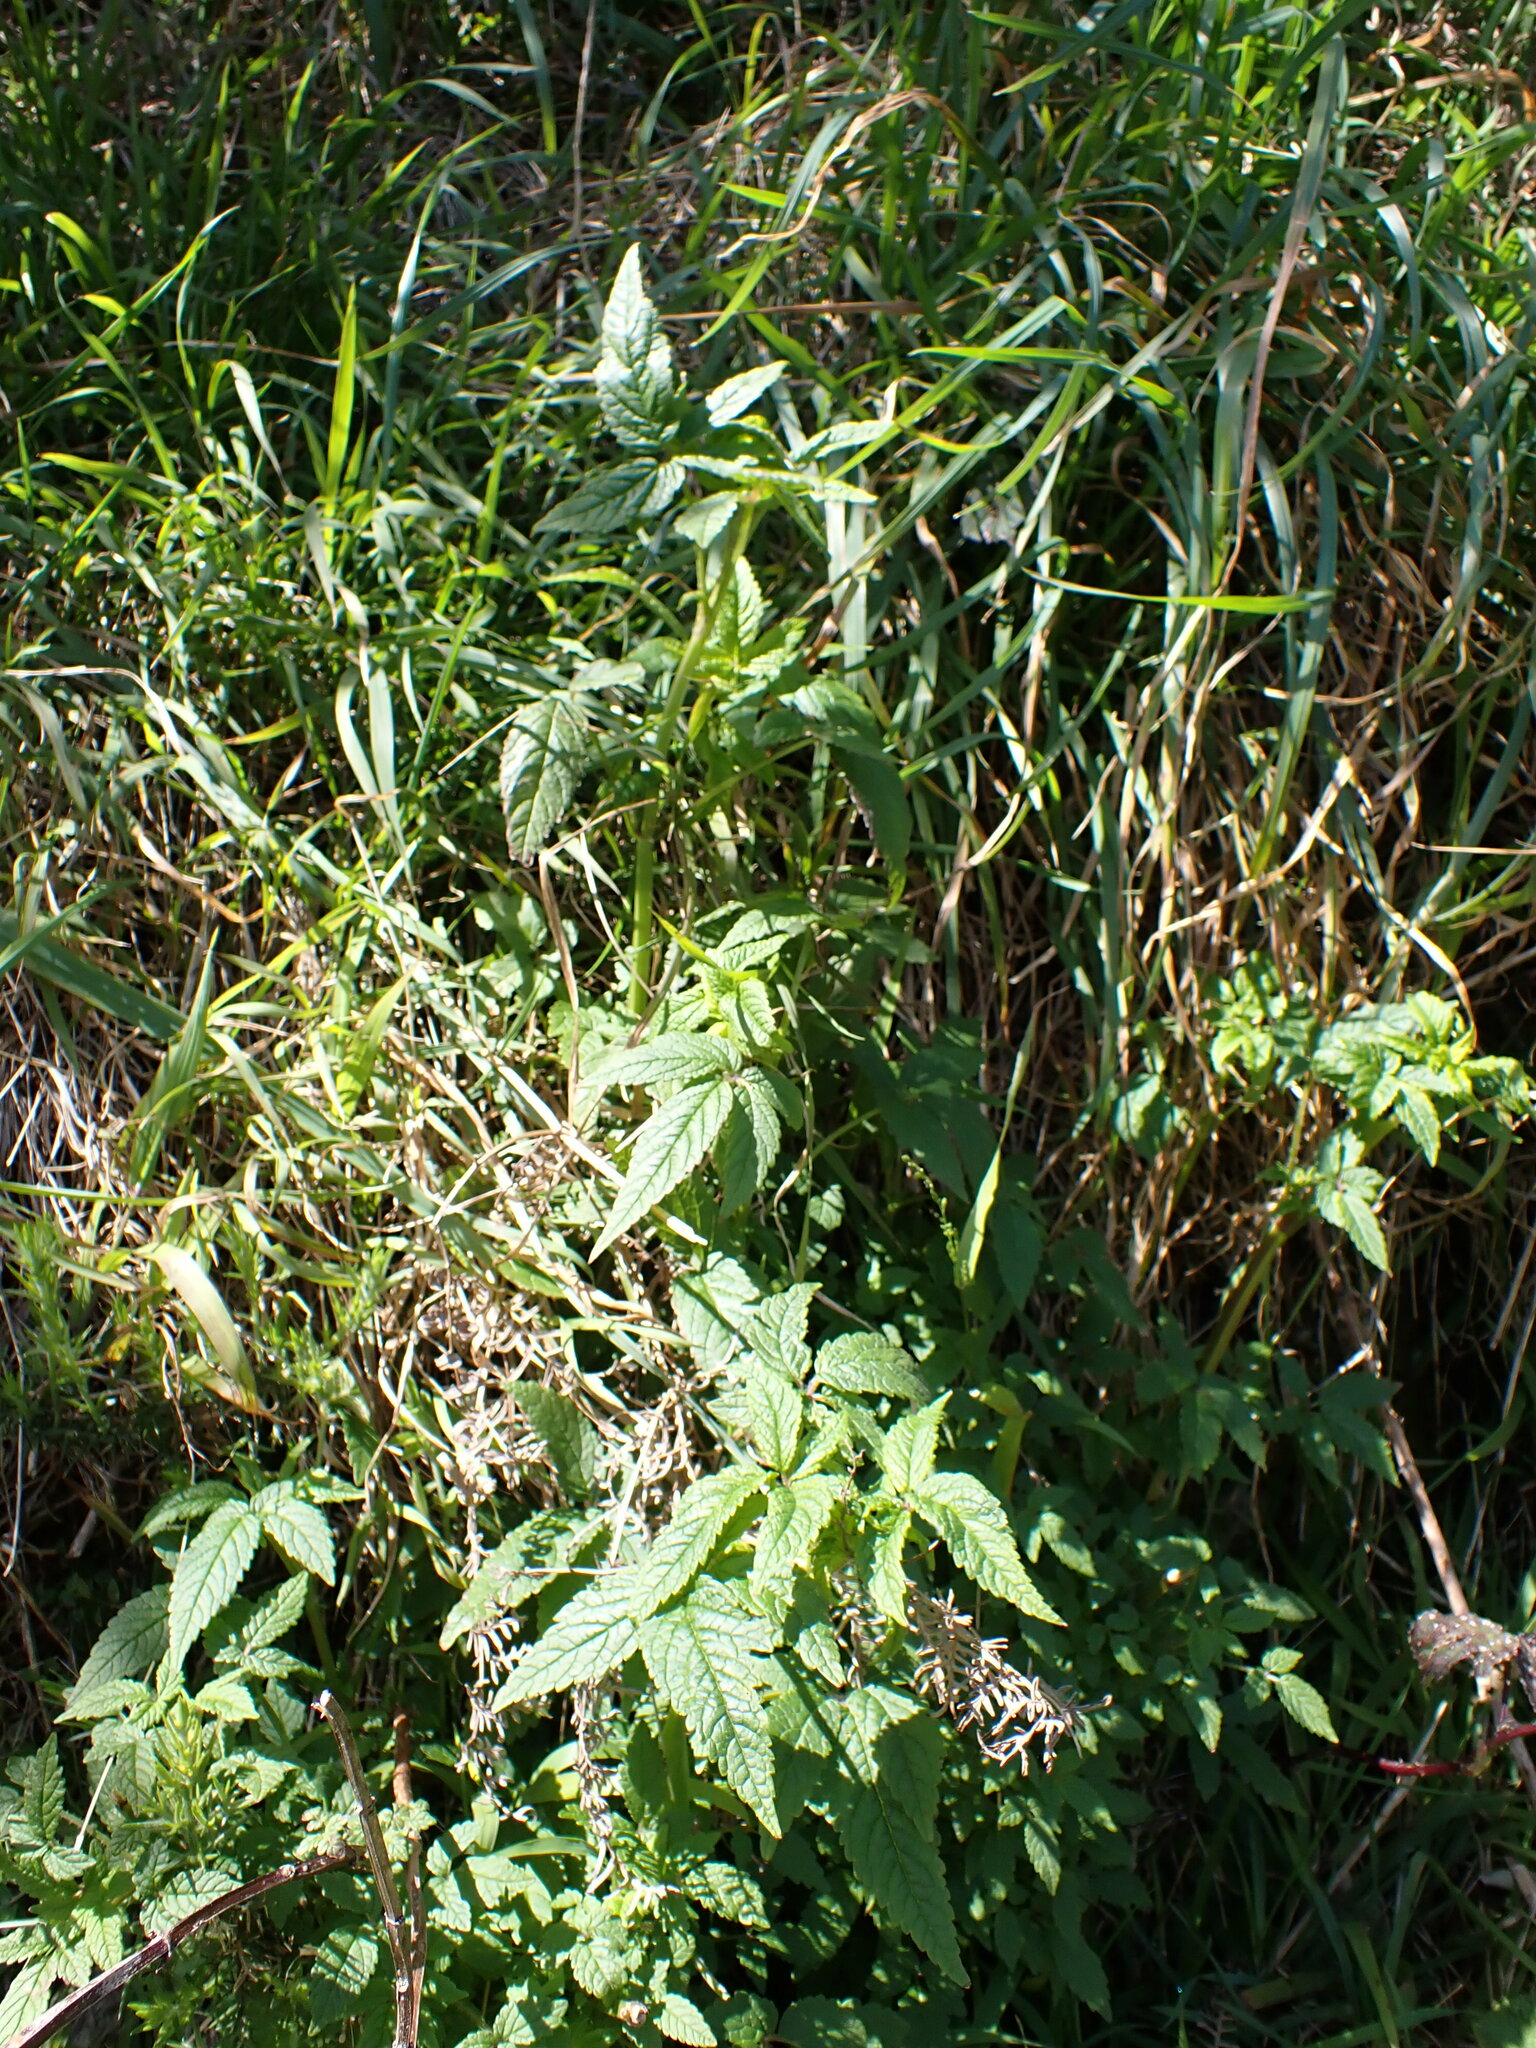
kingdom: Plantae
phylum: Tracheophyta
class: Magnoliopsida
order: Lamiales
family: Lamiaceae
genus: Cedronella
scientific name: Cedronella canariensis
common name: Canary islands balm
